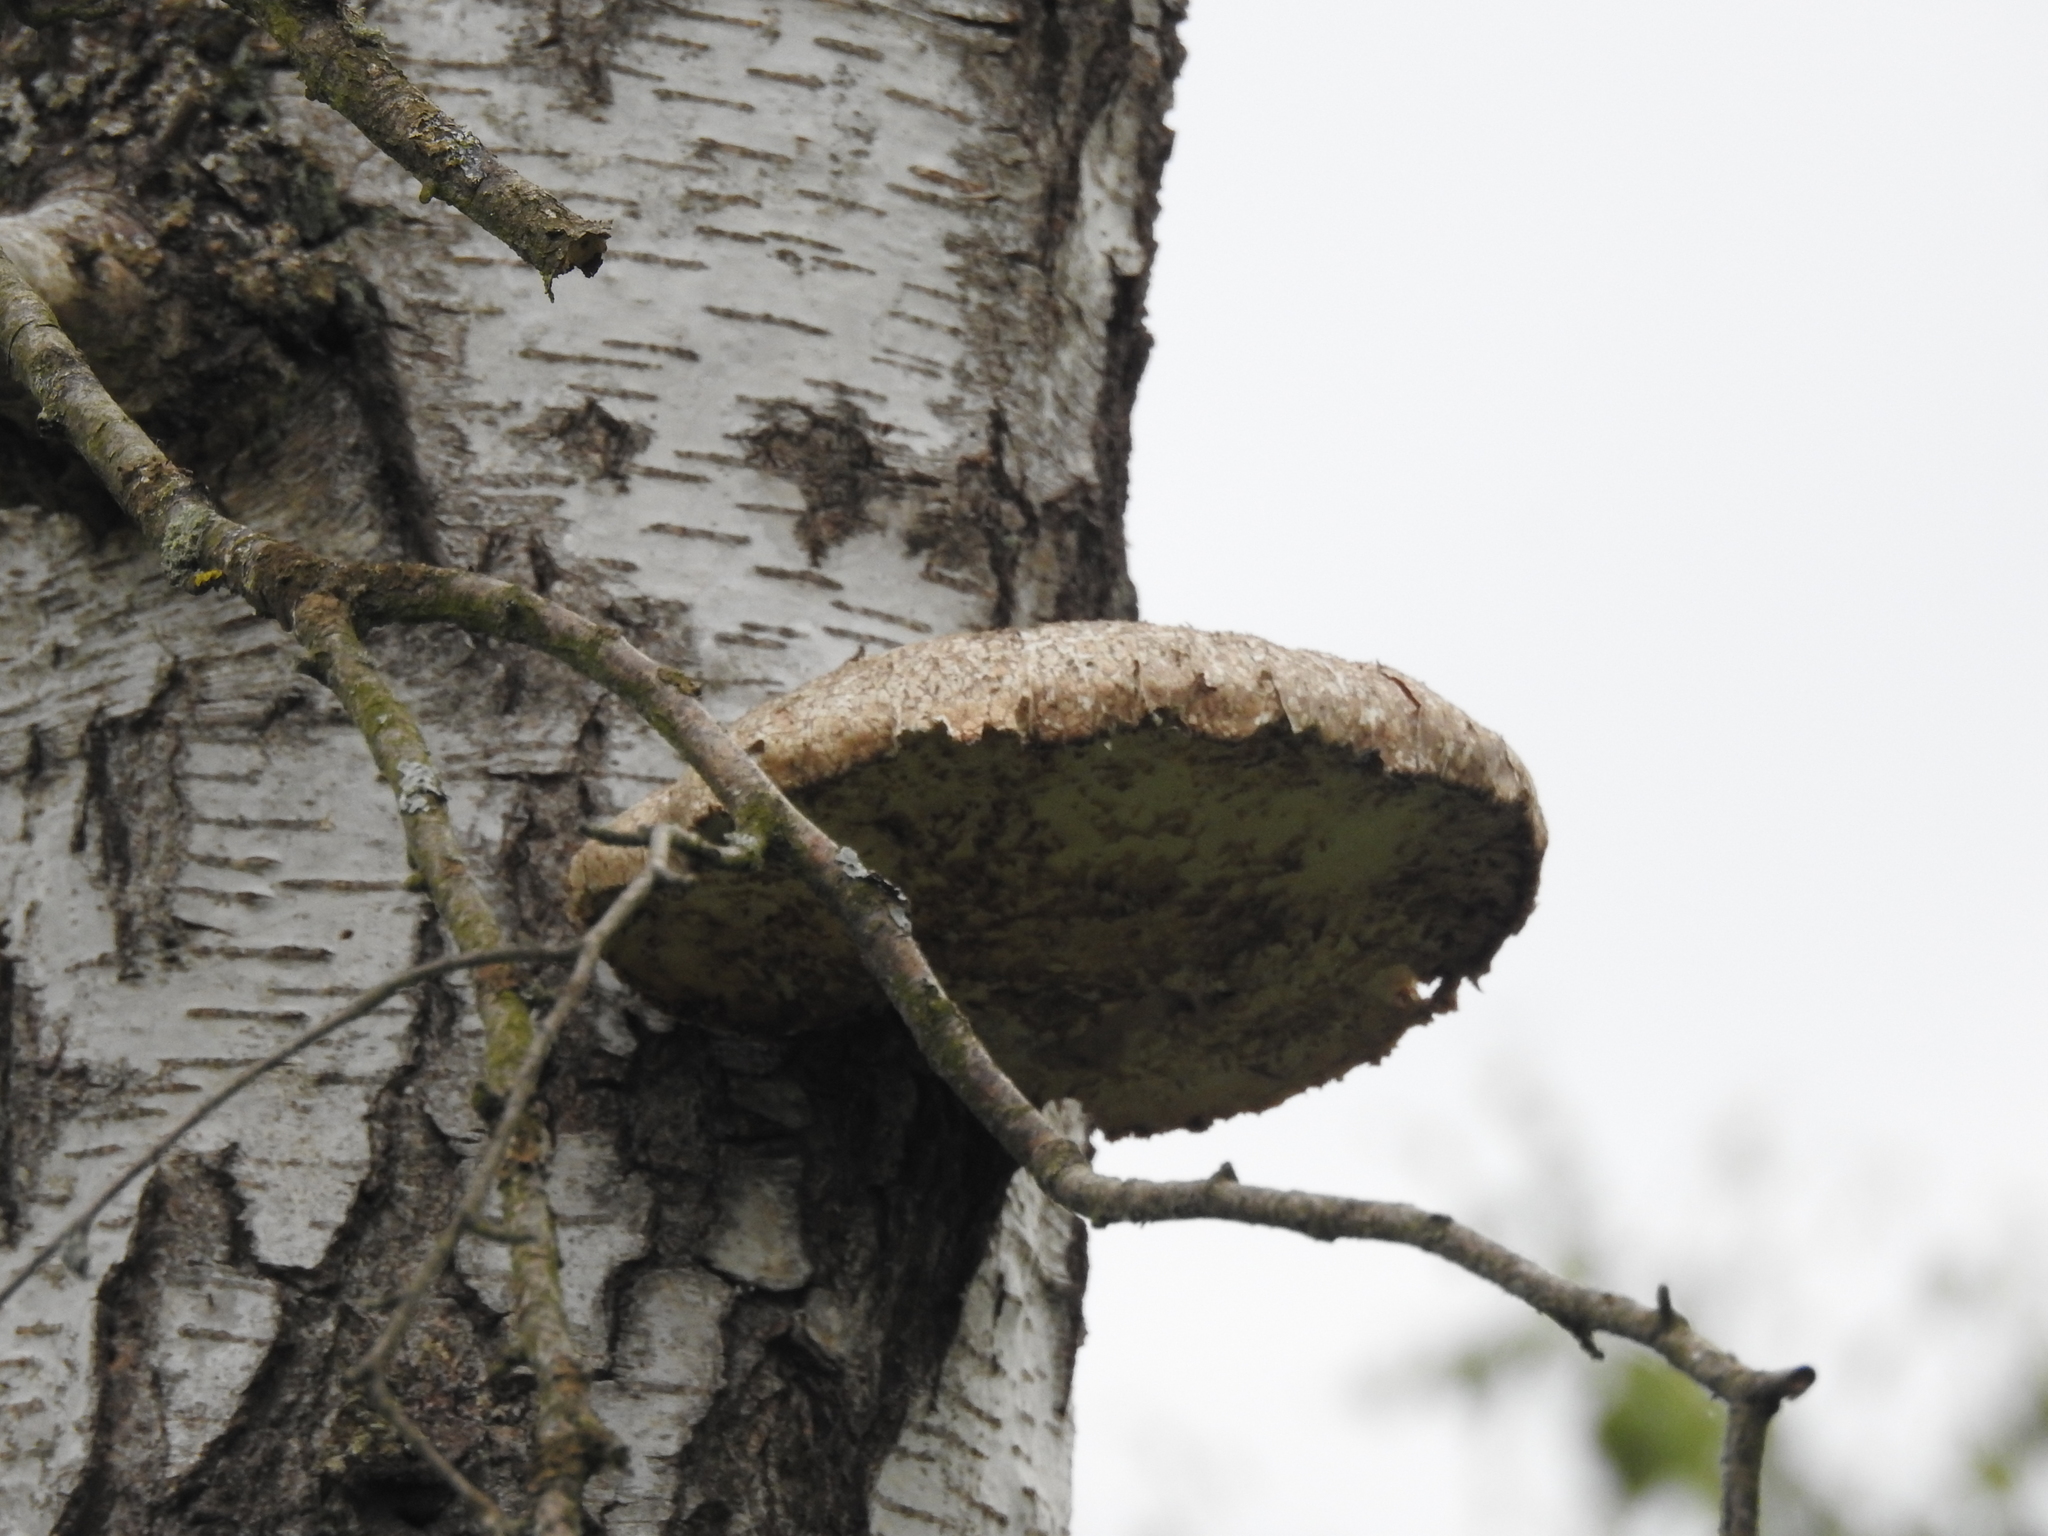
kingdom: Fungi
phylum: Basidiomycota
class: Agaricomycetes
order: Polyporales
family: Fomitopsidaceae
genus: Fomitopsis
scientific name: Fomitopsis betulina
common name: Birch polypore
